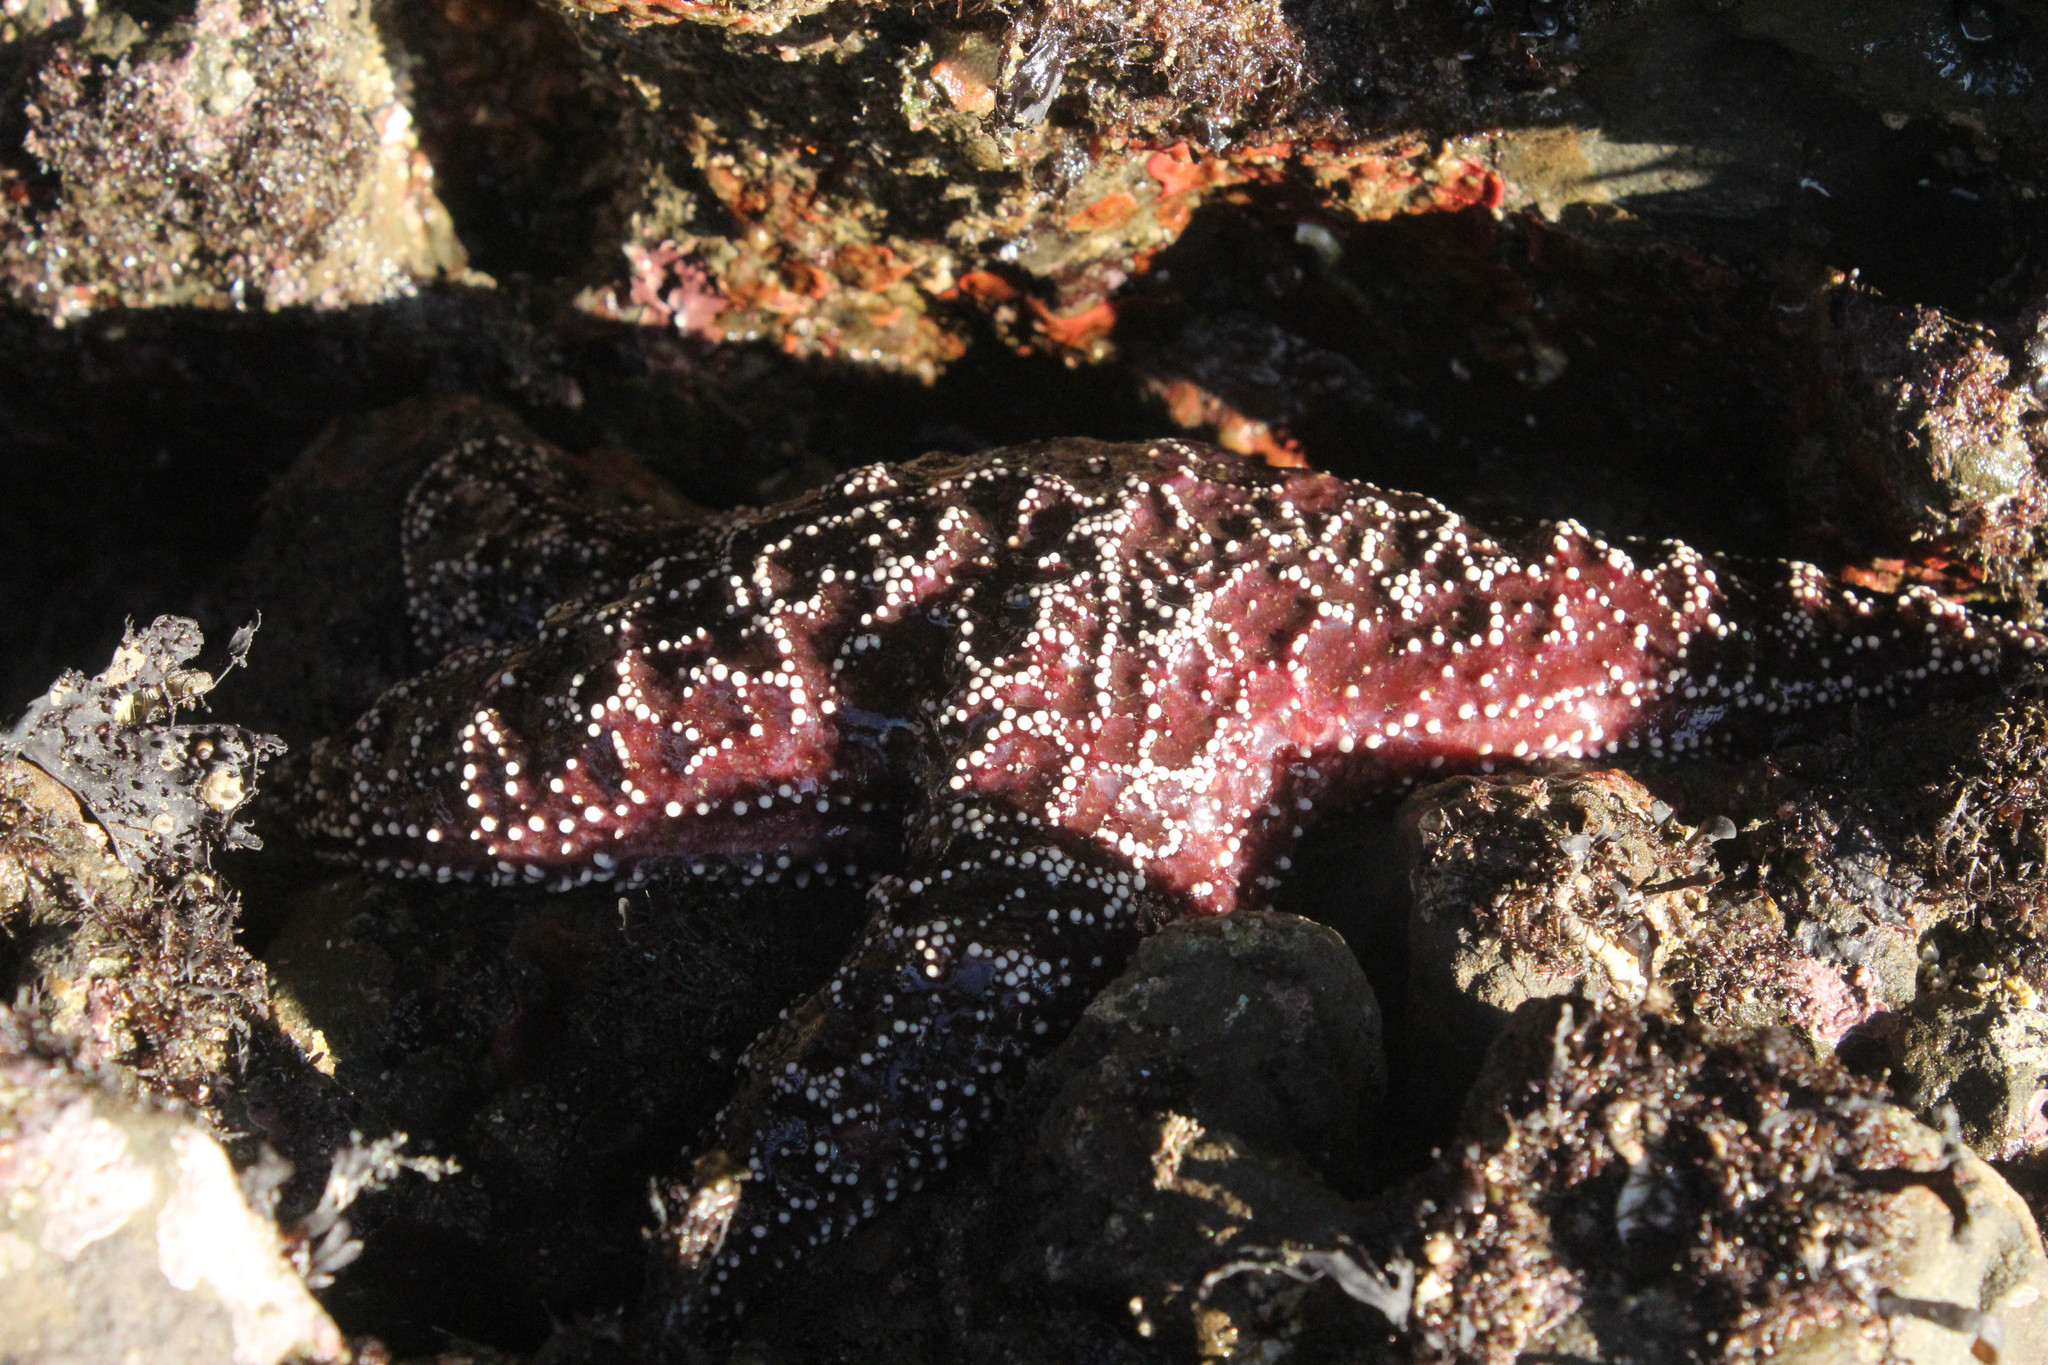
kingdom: Animalia
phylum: Echinodermata
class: Asteroidea
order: Forcipulatida
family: Asteriidae
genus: Pisaster
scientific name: Pisaster ochraceus
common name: Ochre stars
